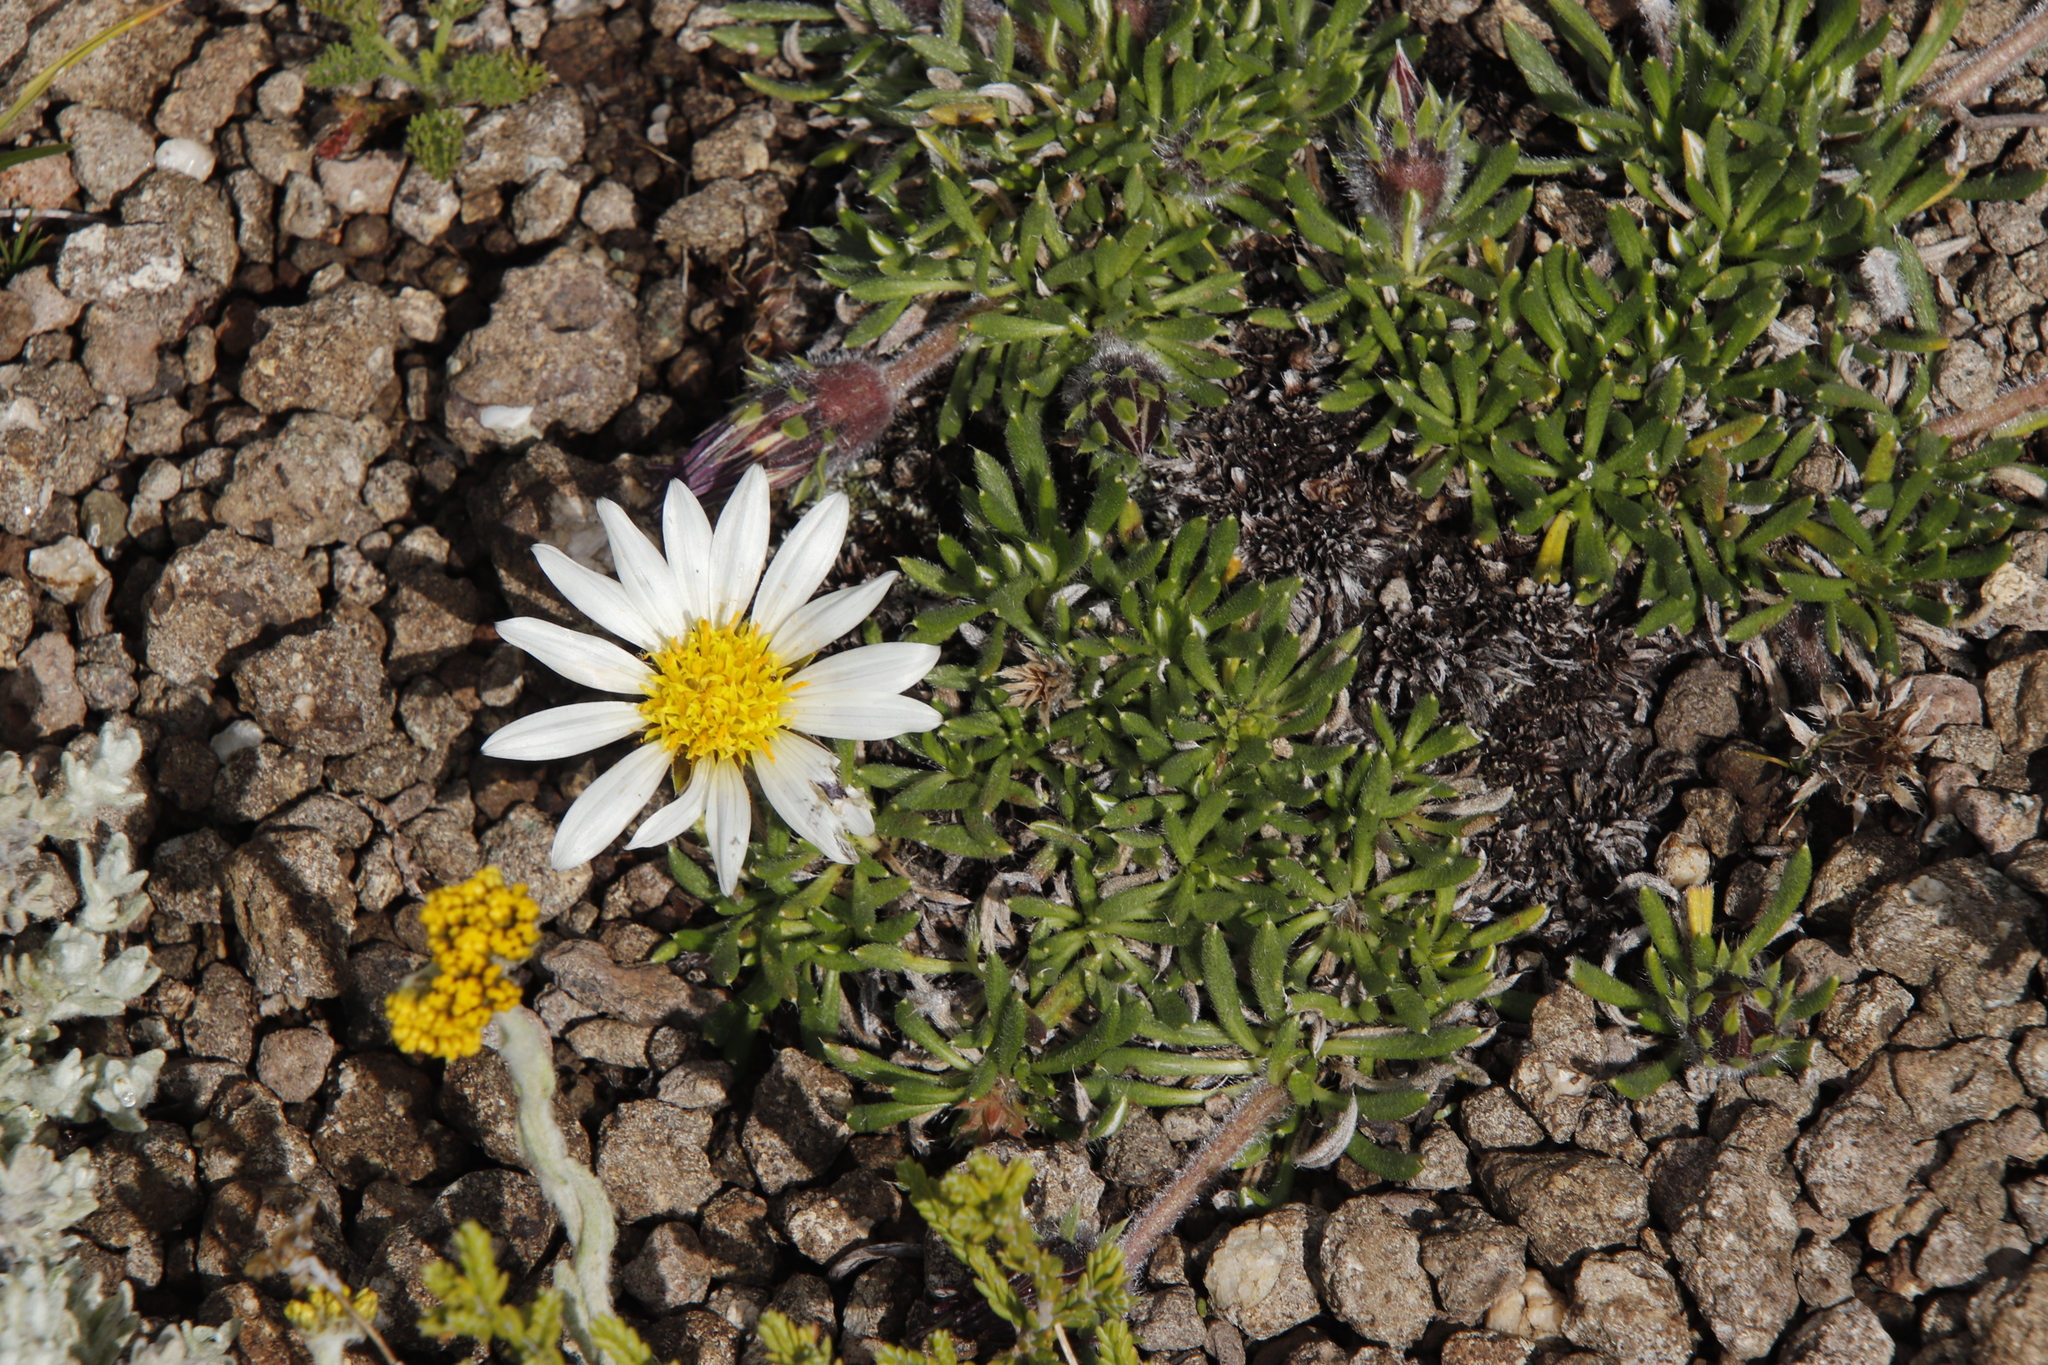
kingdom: Plantae
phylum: Tracheophyta
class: Magnoliopsida
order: Asterales
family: Asteraceae
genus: Roessleria
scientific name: Roessleria armerioides
